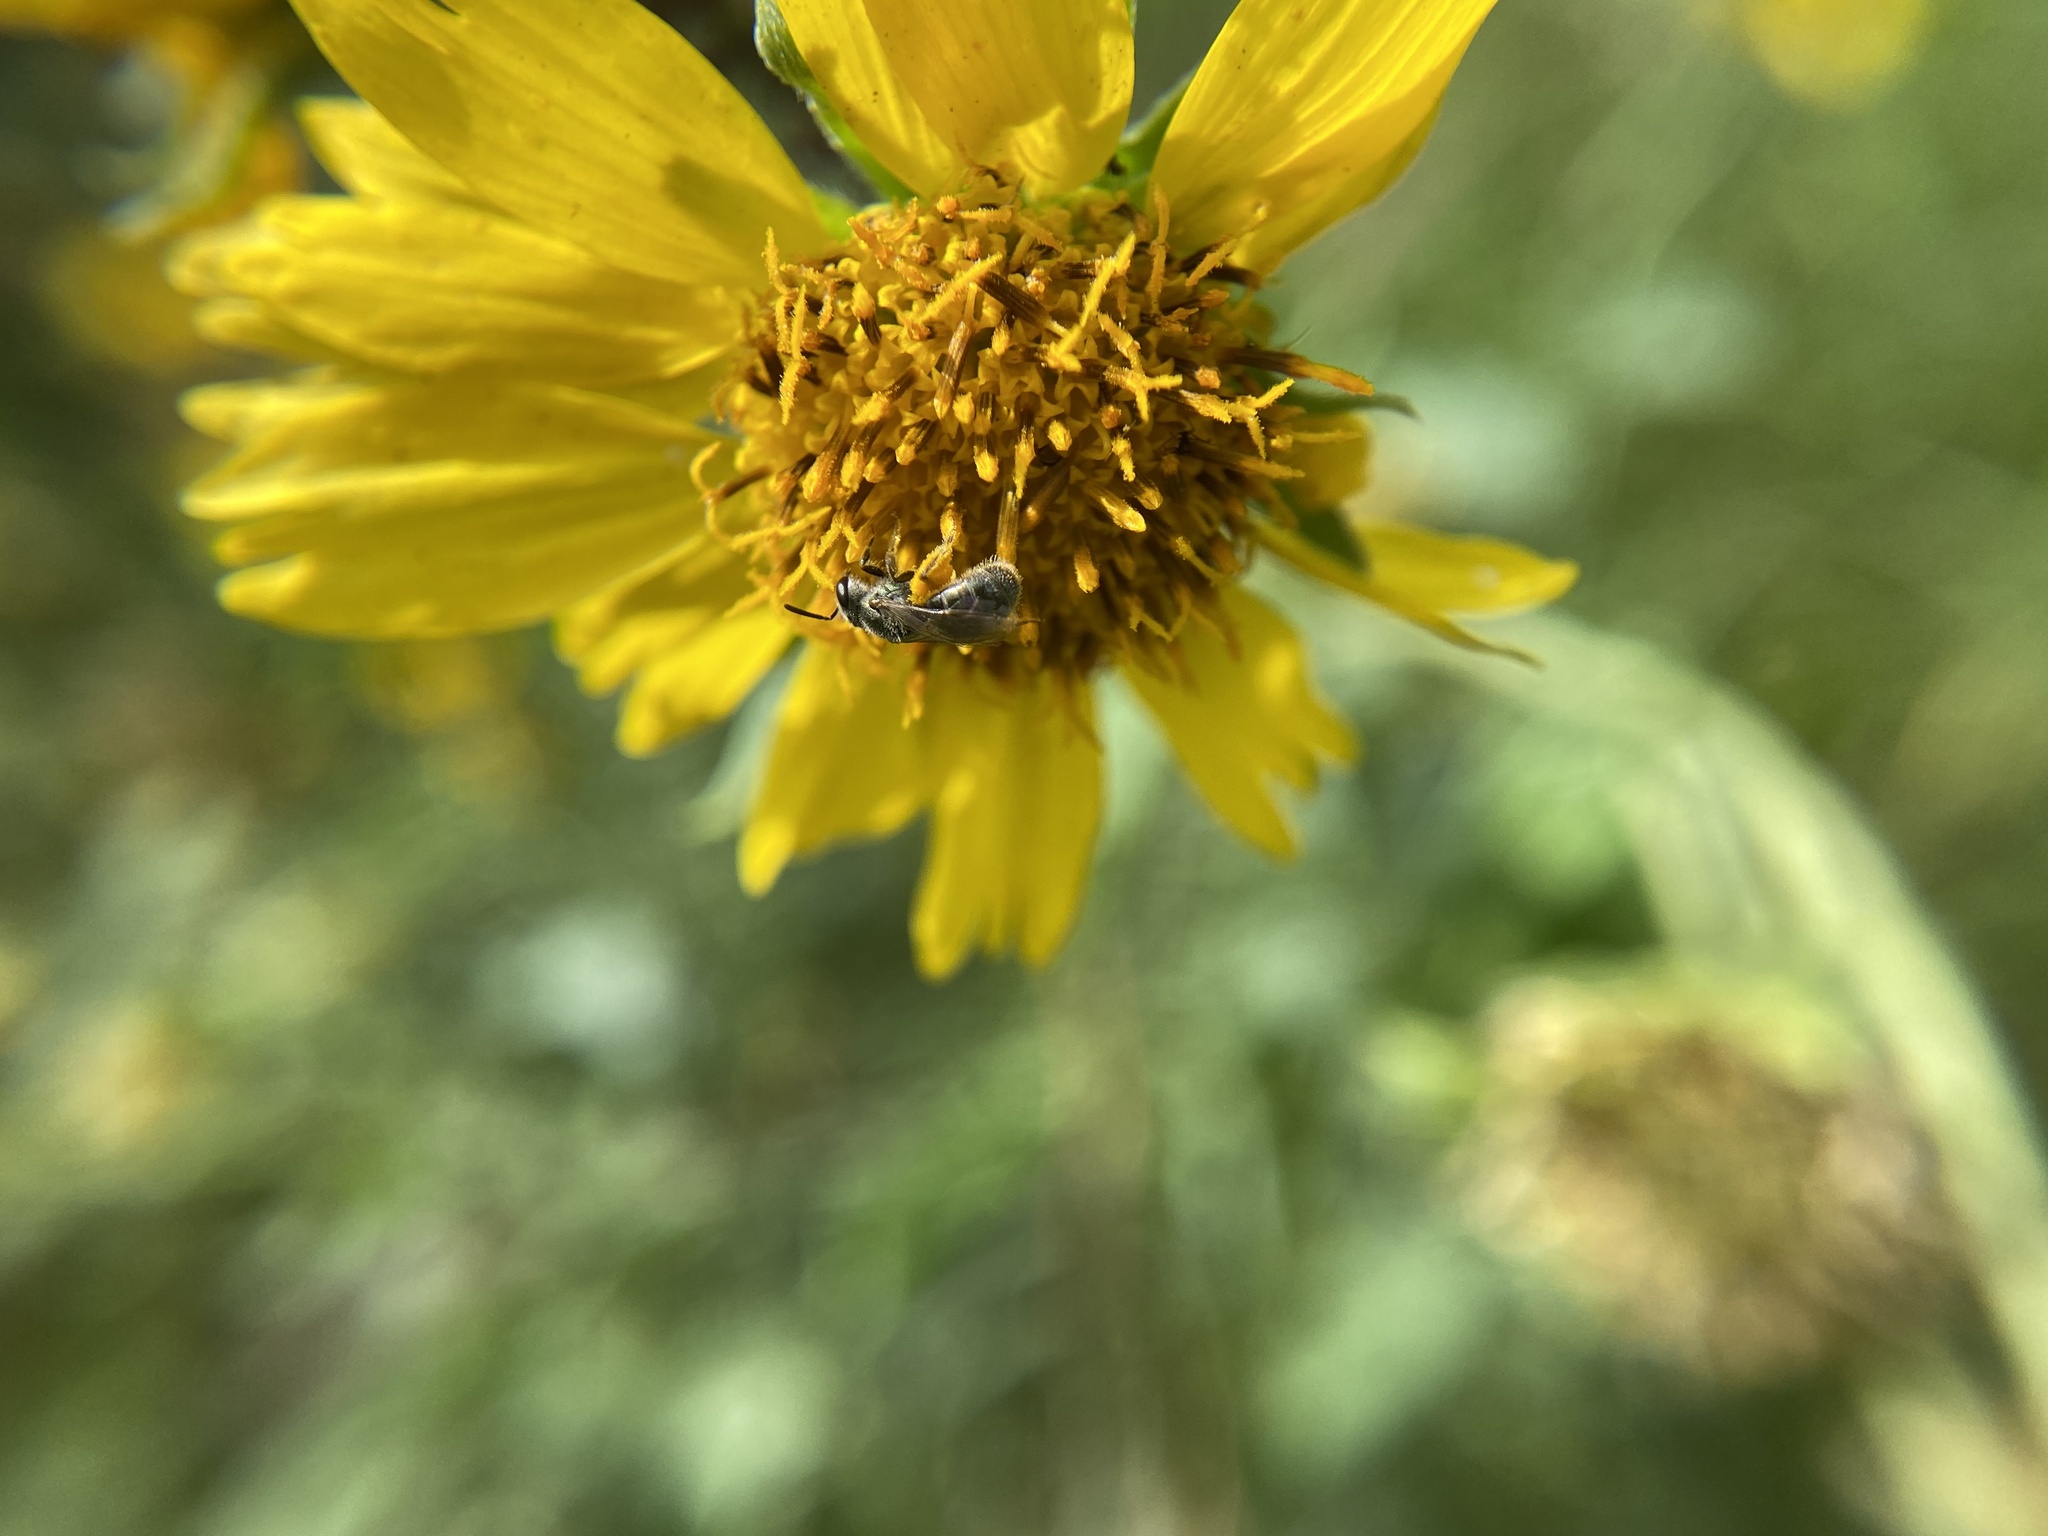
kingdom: Plantae
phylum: Tracheophyta
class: Magnoliopsida
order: Asterales
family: Asteraceae
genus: Verbesina
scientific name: Verbesina encelioides
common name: Golden crownbeard
